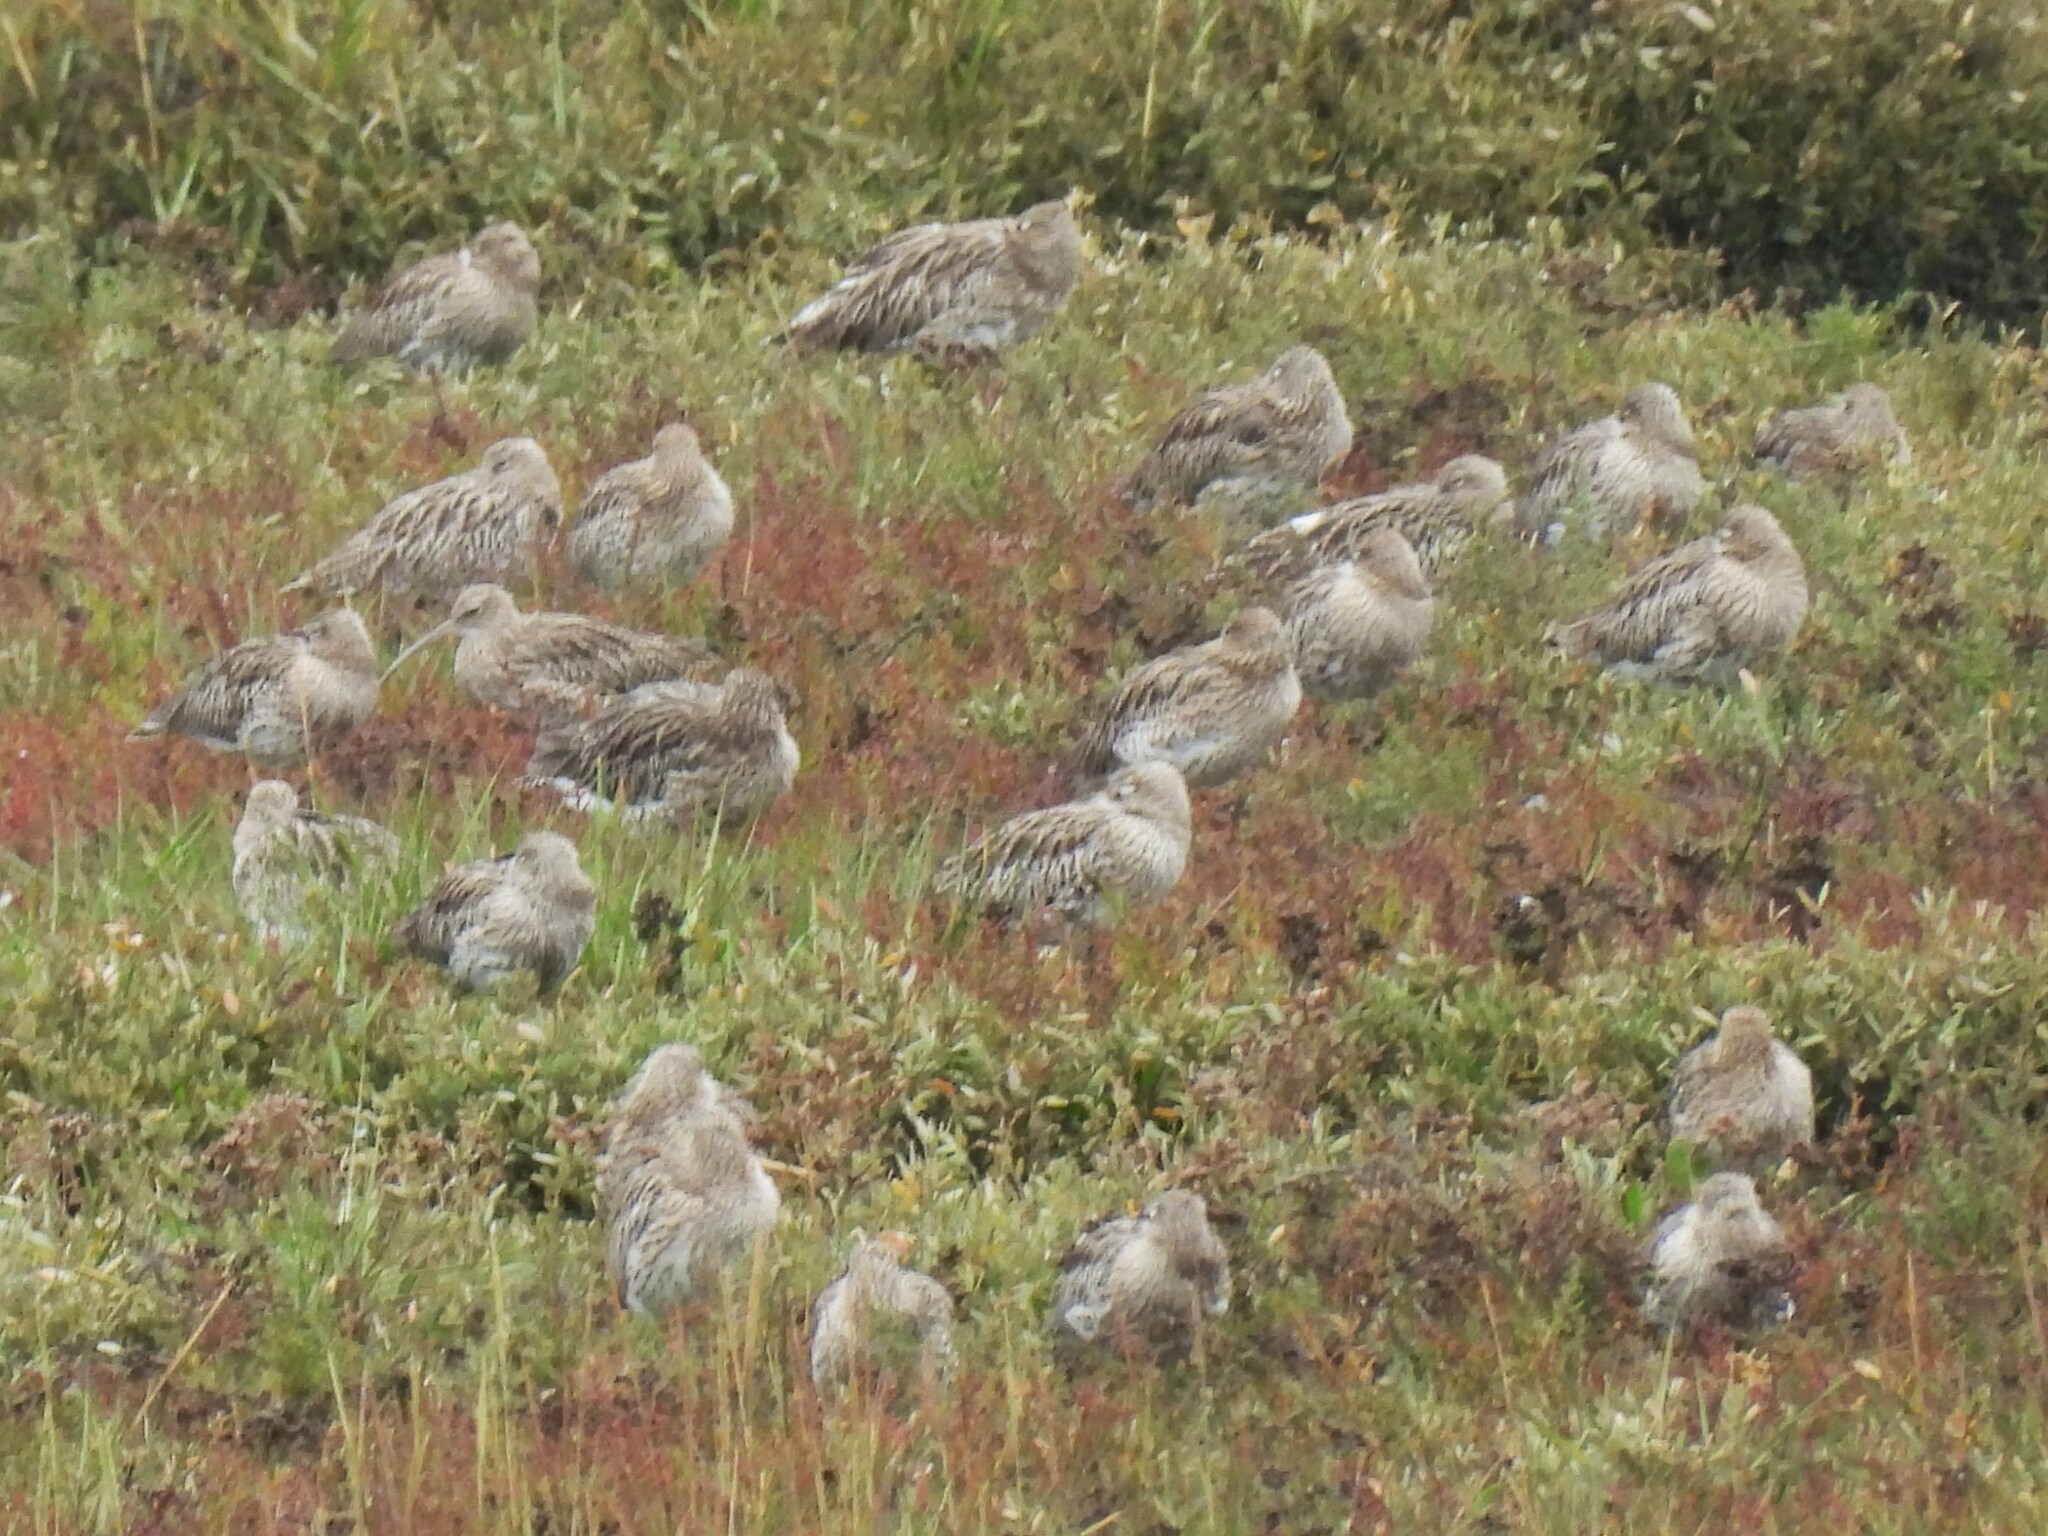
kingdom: Animalia
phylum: Chordata
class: Aves
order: Charadriiformes
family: Scolopacidae
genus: Numenius
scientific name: Numenius arquata
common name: Eurasian curlew
